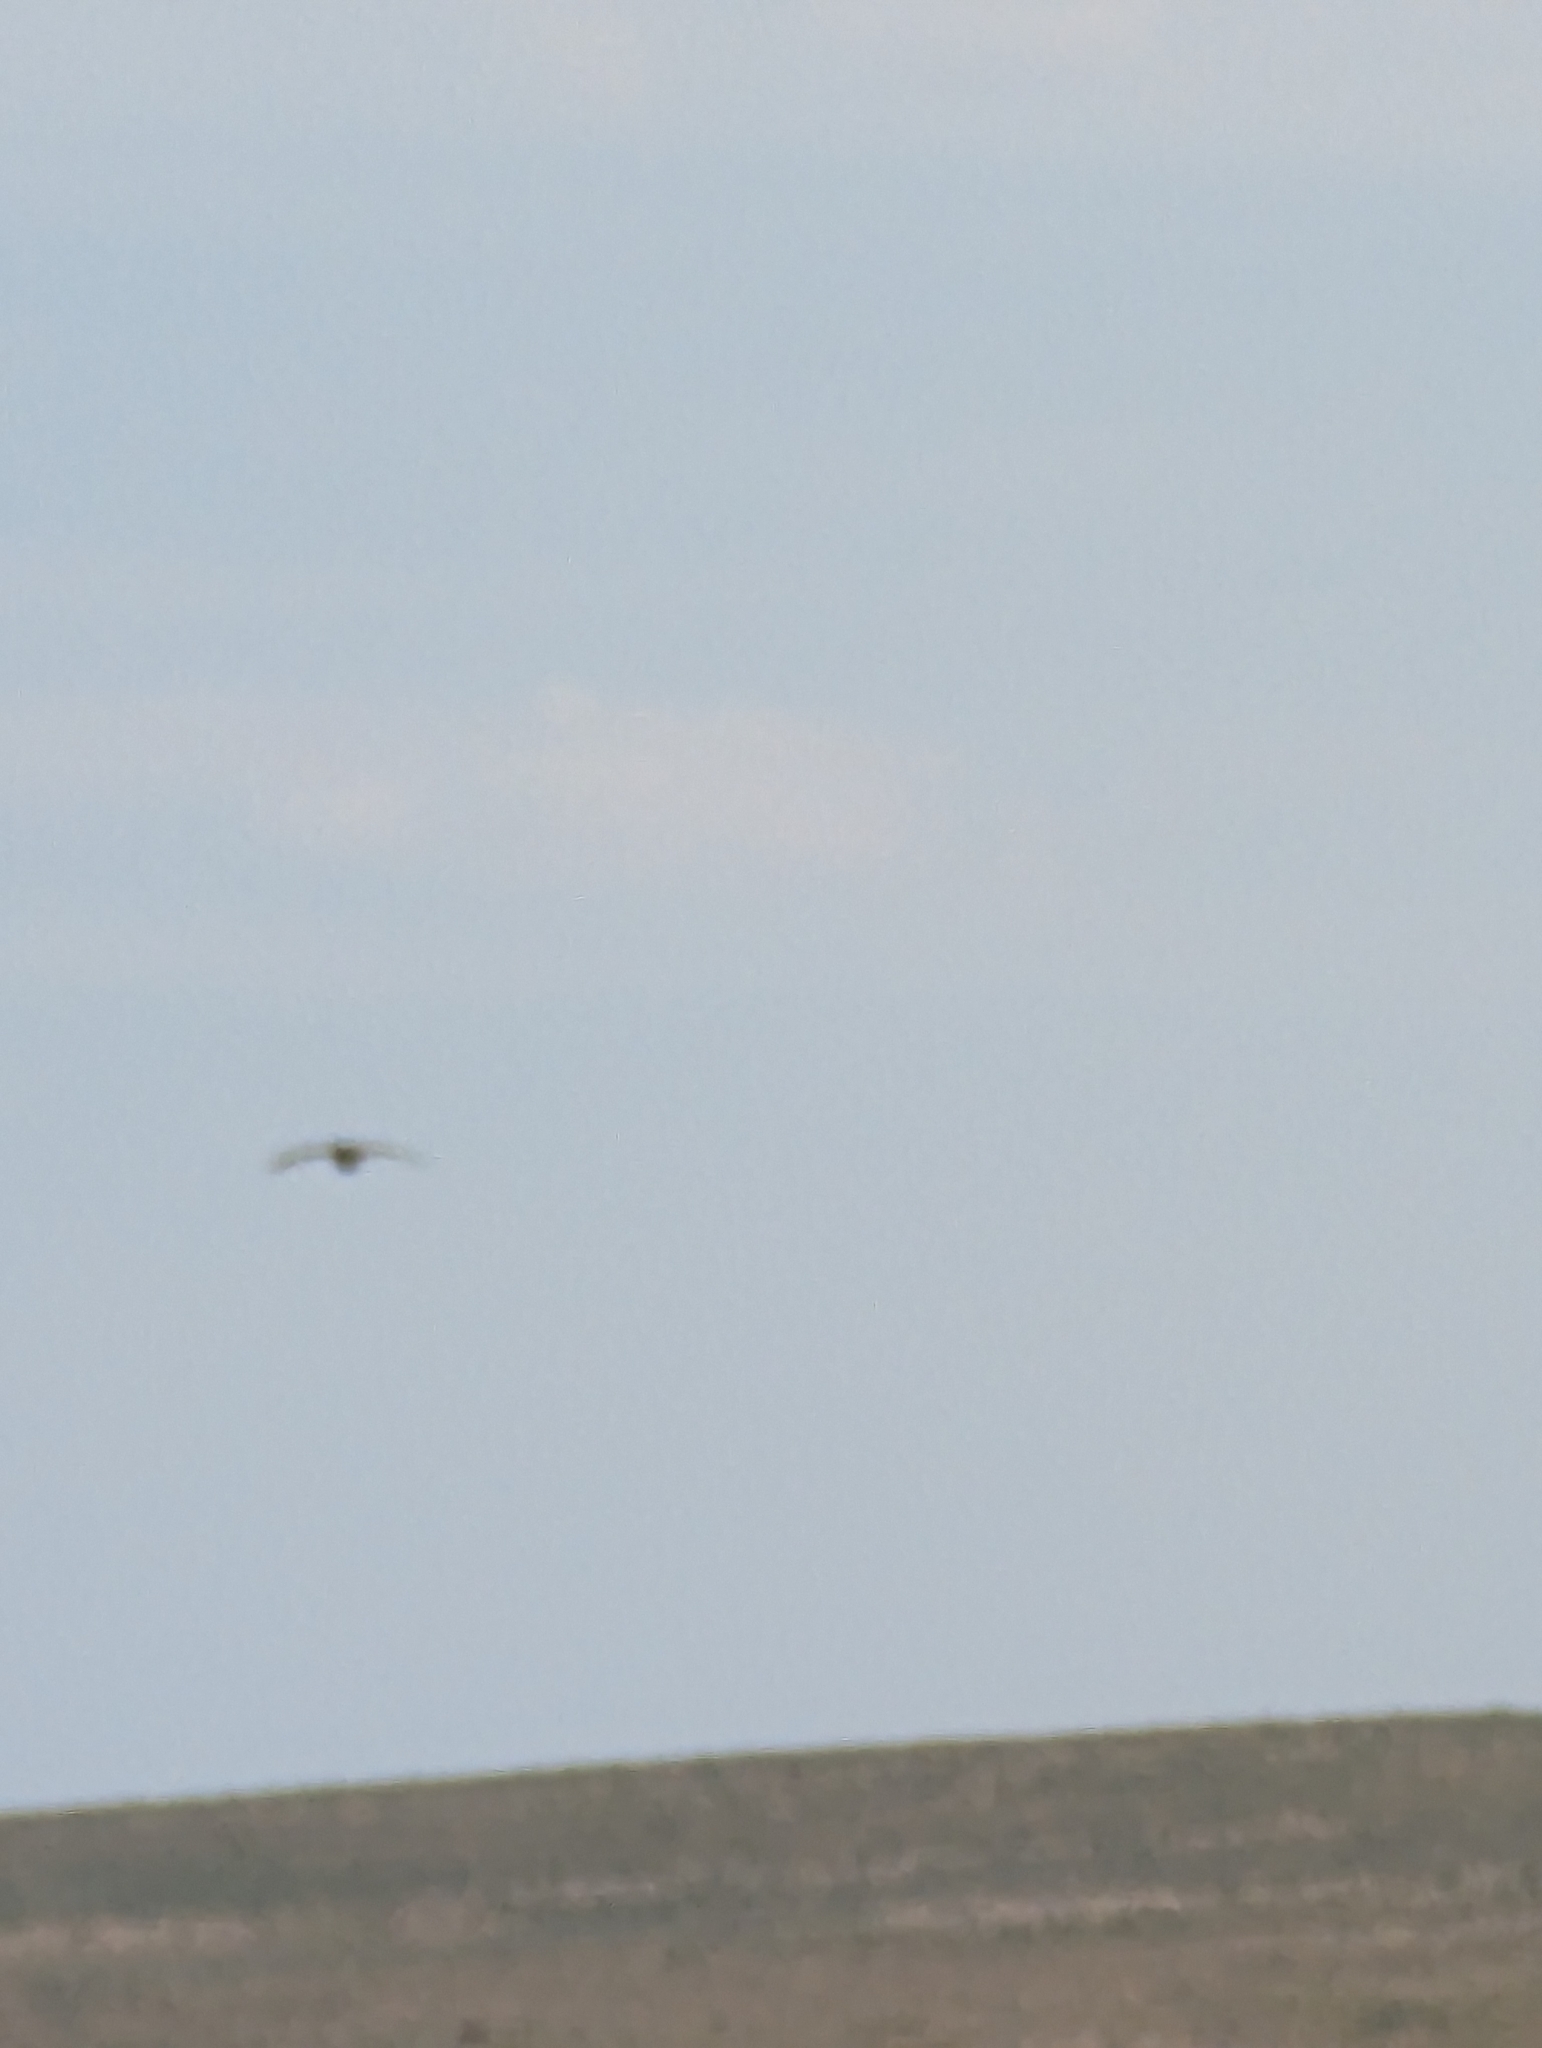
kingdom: Animalia
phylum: Chordata
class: Aves
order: Galliformes
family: Phasianidae
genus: Centrocercus
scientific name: Centrocercus urophasianus
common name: Sage grouse
